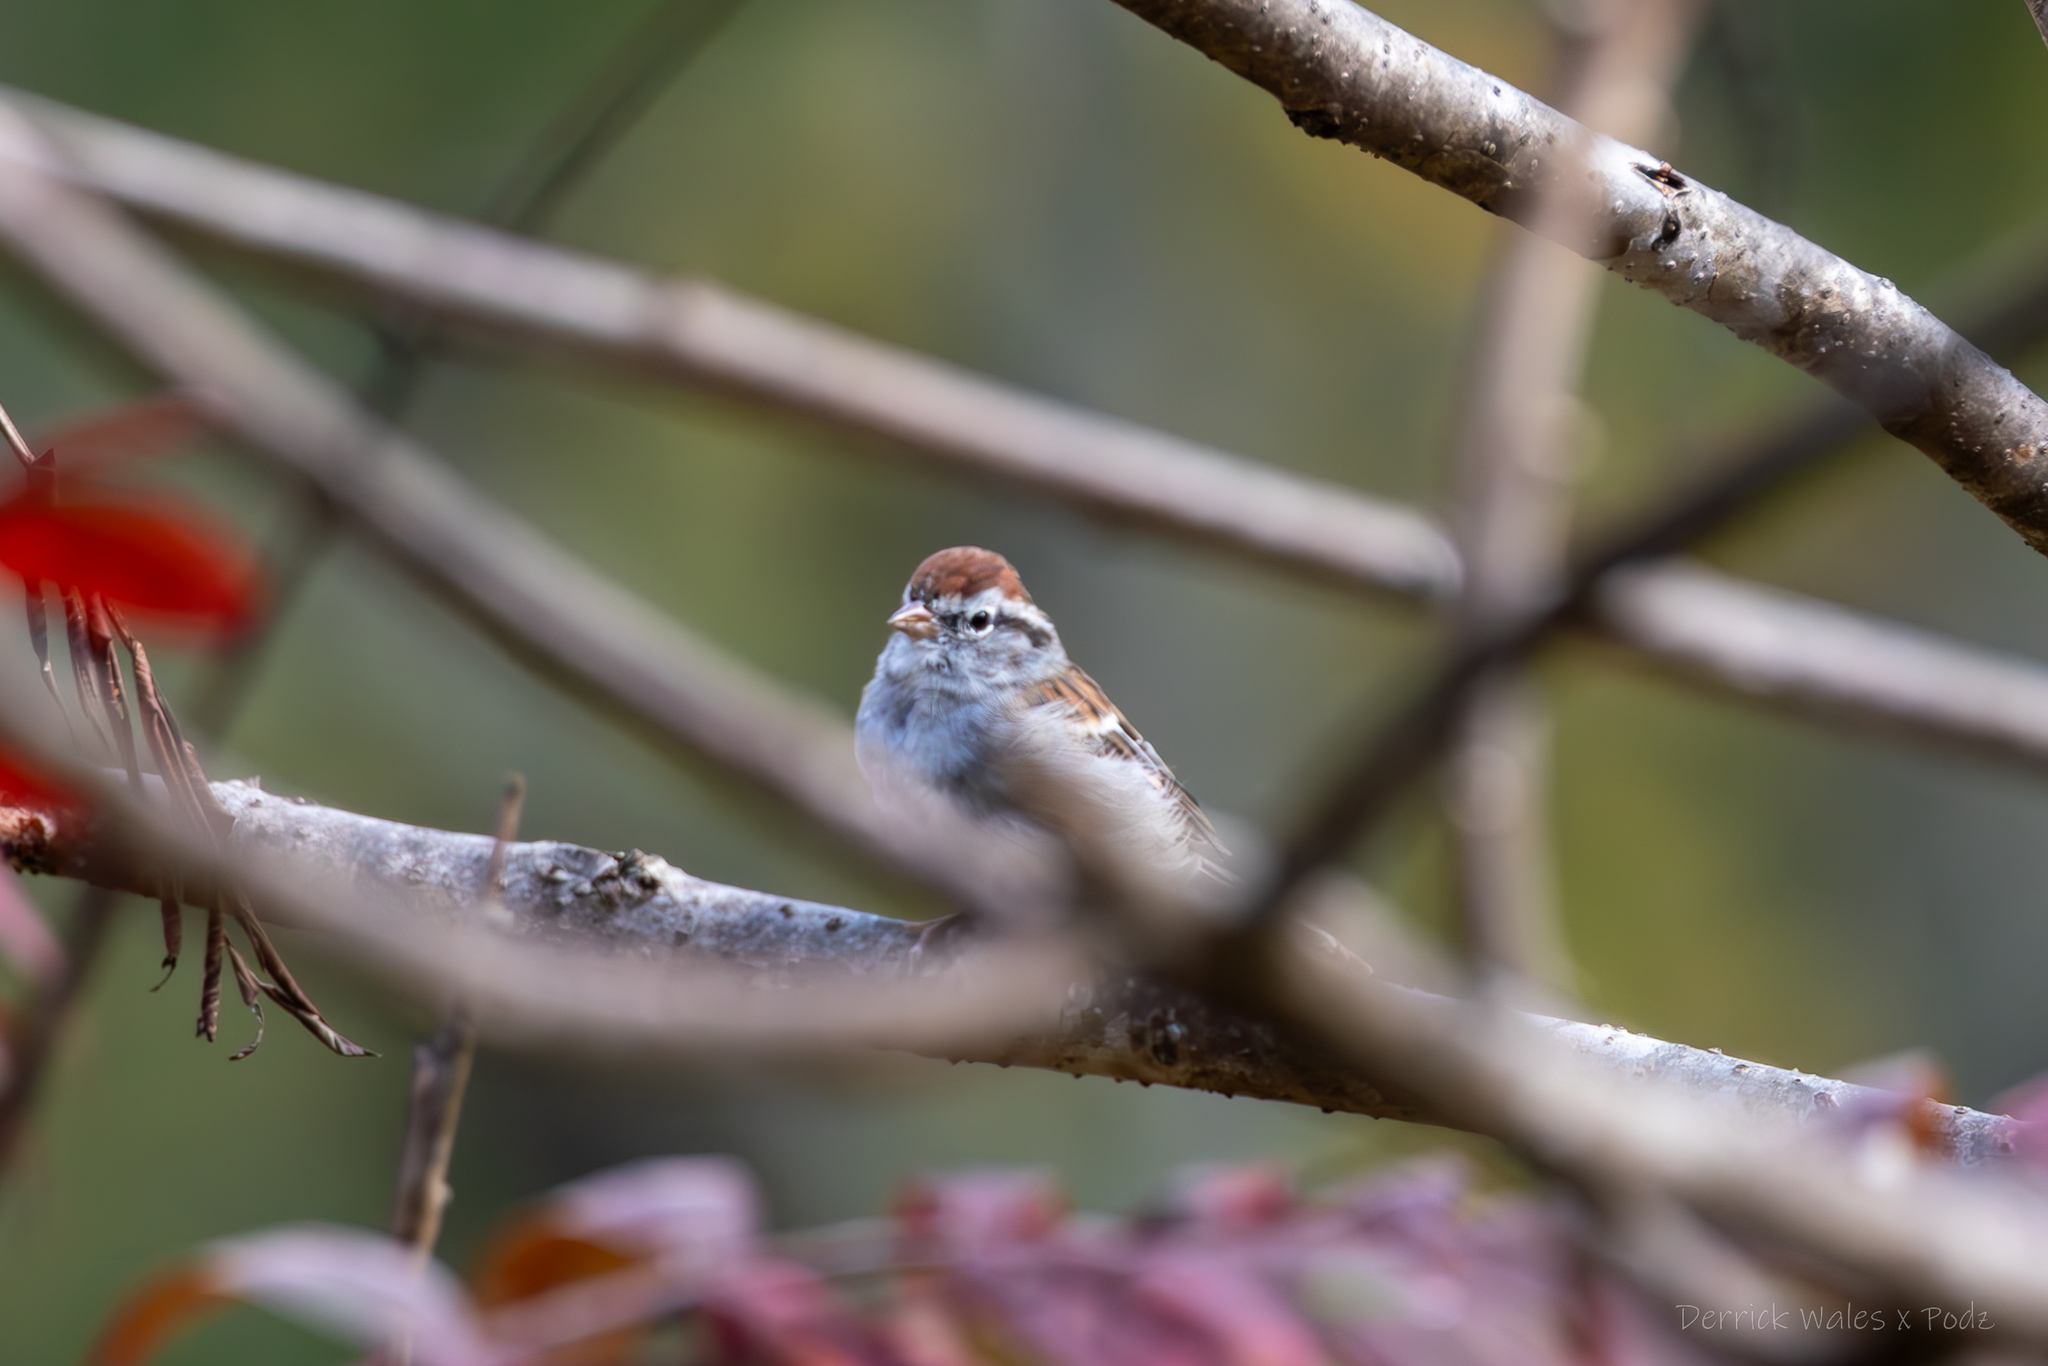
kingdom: Animalia
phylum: Chordata
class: Aves
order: Passeriformes
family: Passerellidae
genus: Spizella
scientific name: Spizella passerina
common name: Chipping sparrow
